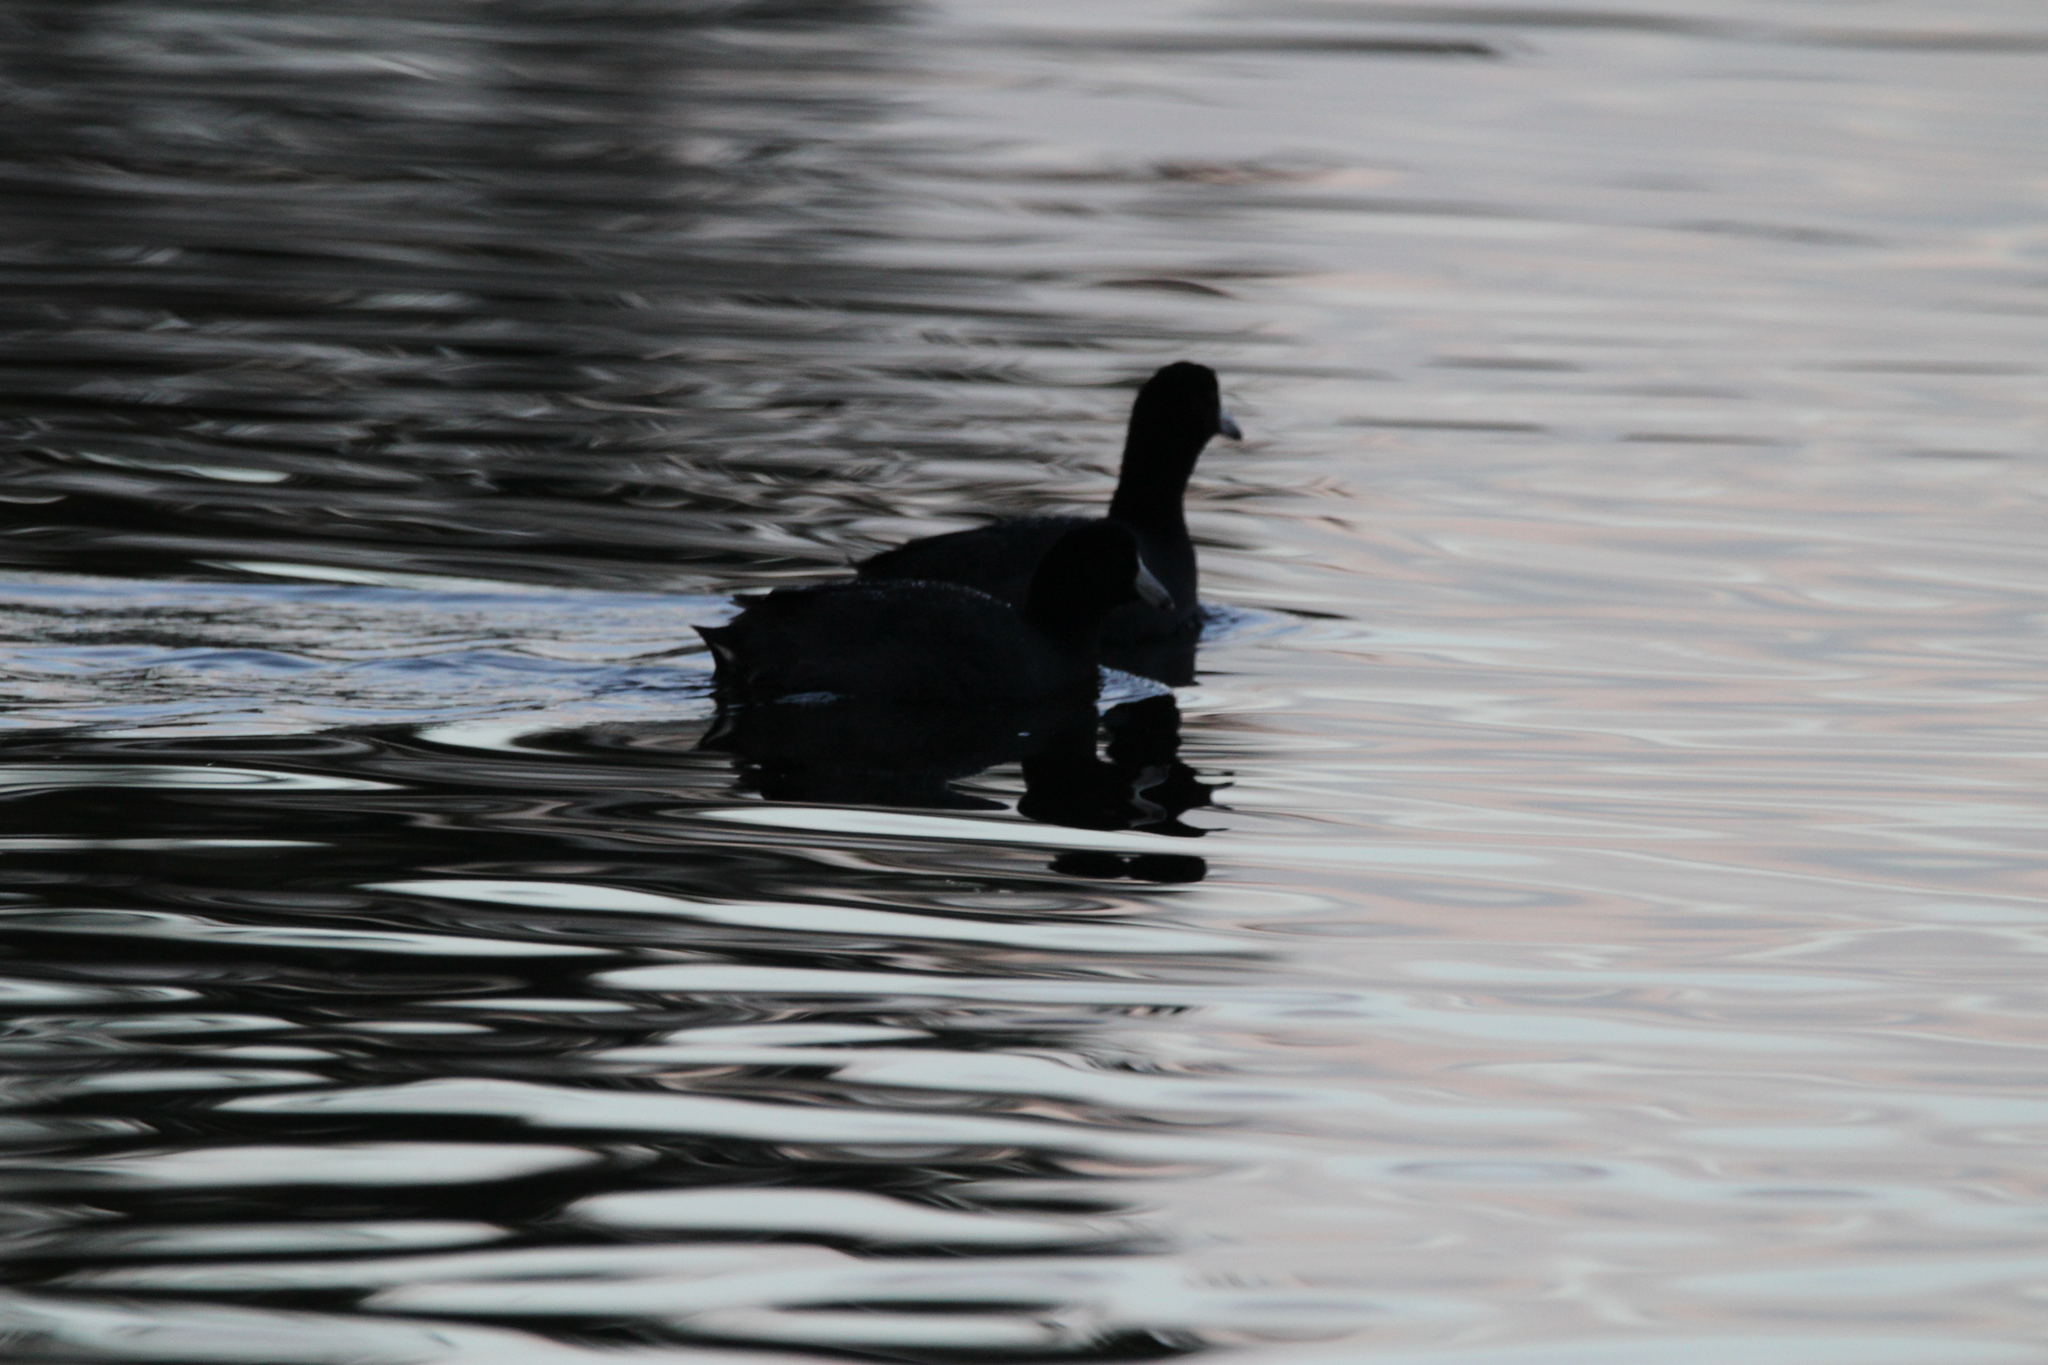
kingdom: Animalia
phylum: Chordata
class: Aves
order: Gruiformes
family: Rallidae
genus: Fulica
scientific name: Fulica americana
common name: American coot
